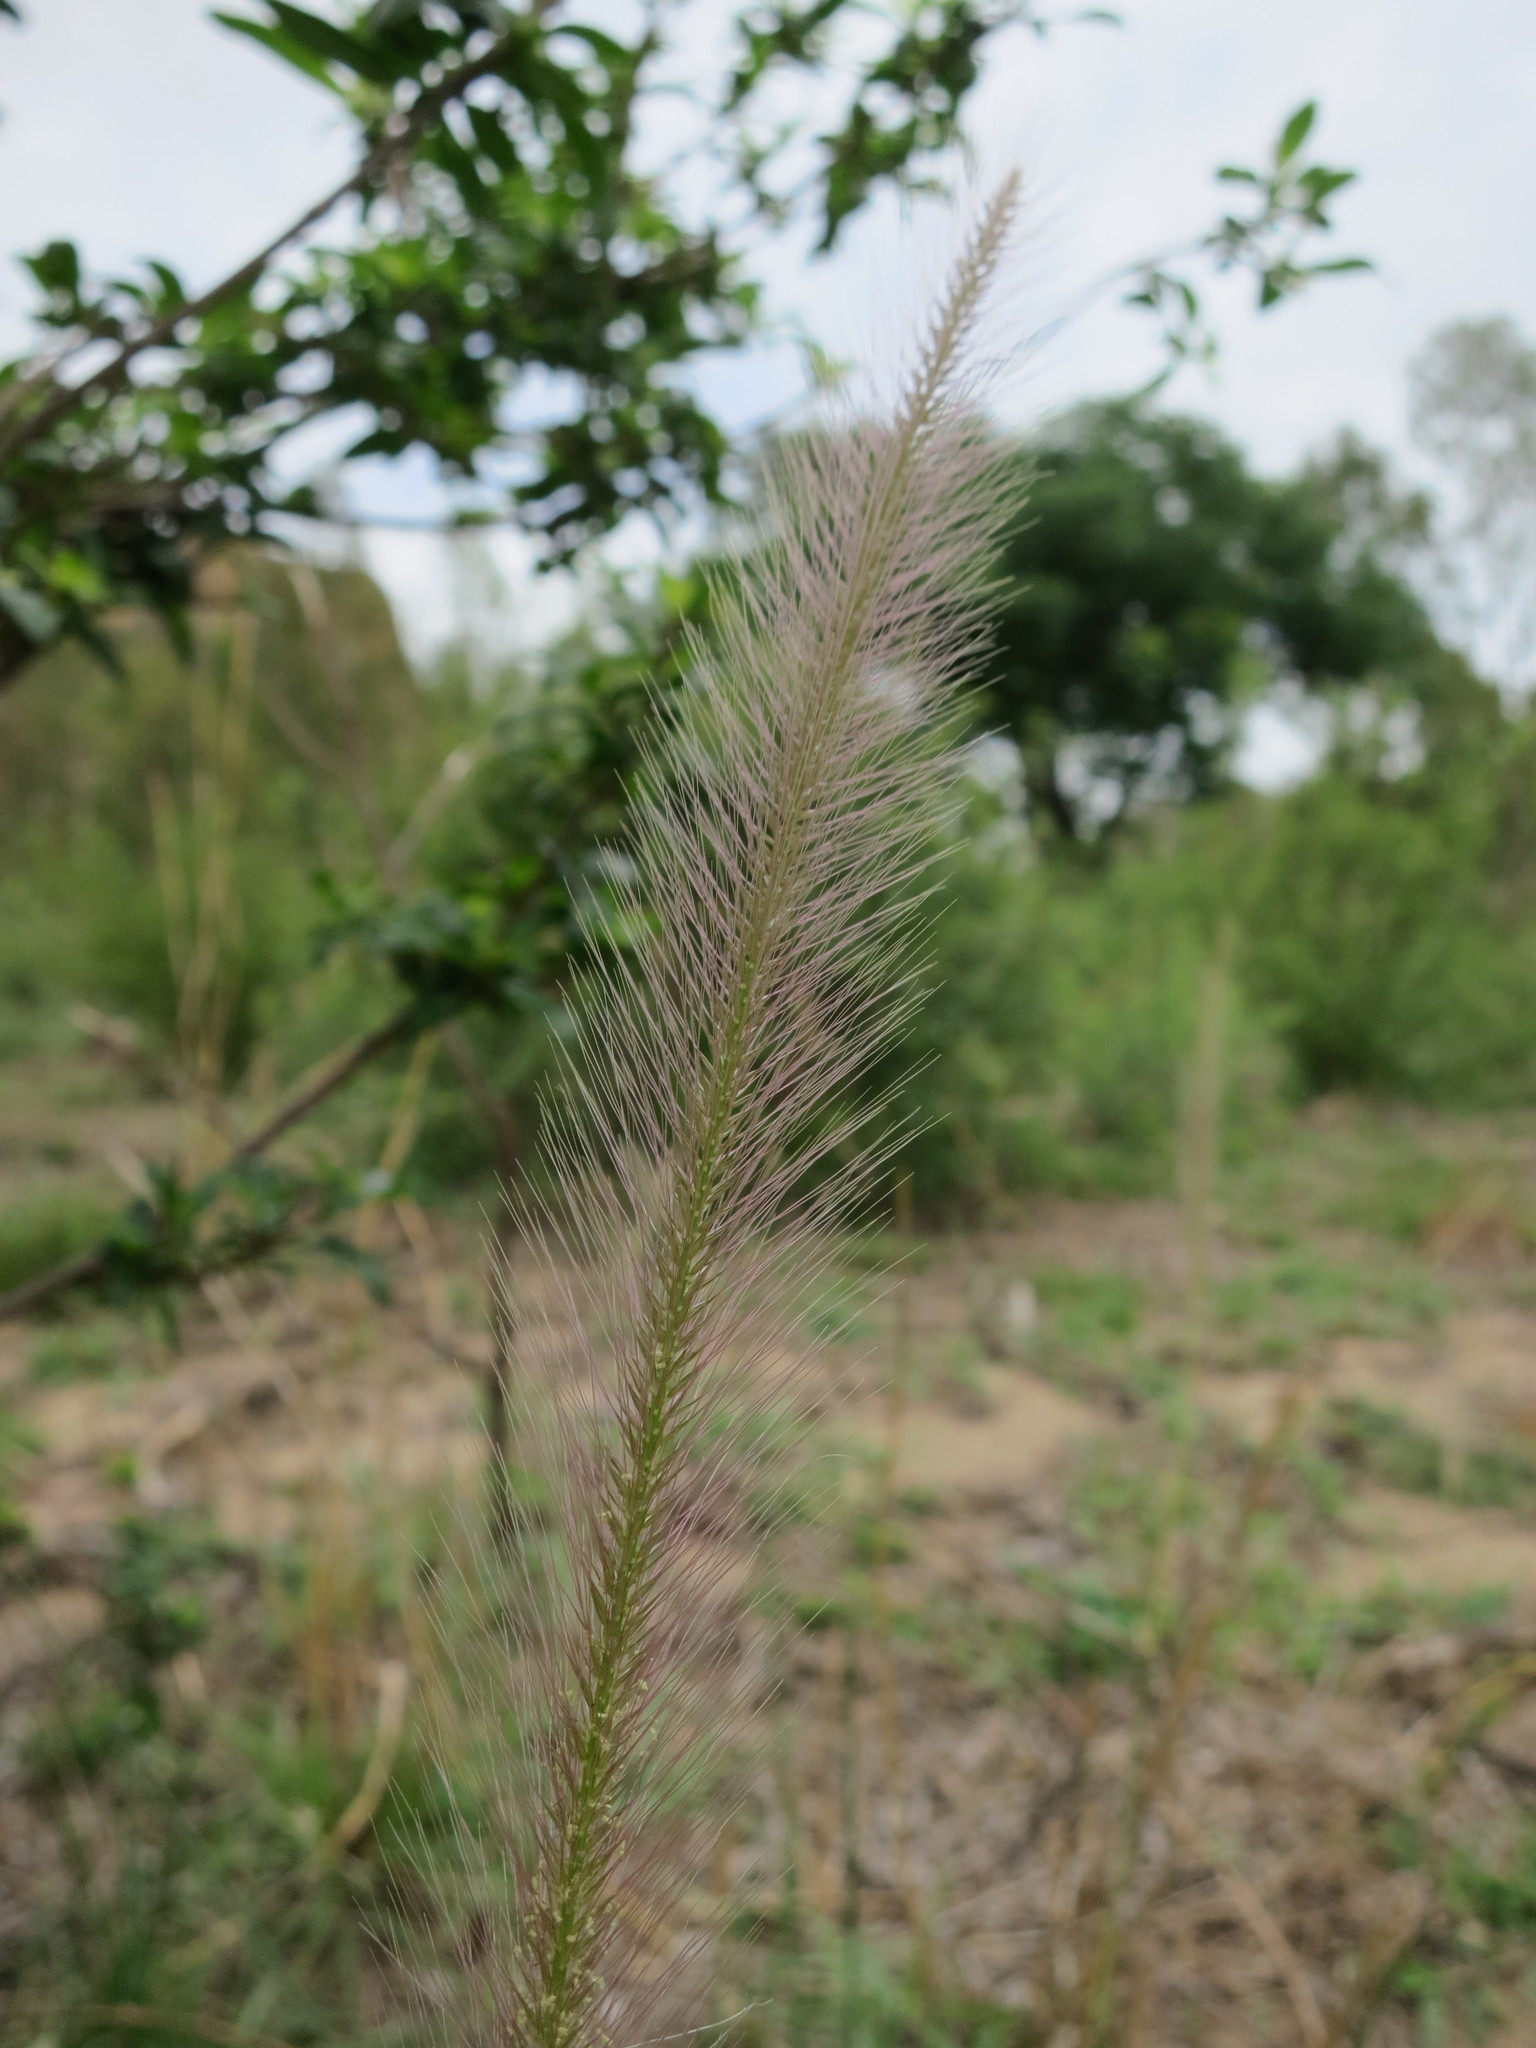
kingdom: Plantae
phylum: Tracheophyta
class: Liliopsida
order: Poales
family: Poaceae
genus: Perotis
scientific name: Perotis patens
